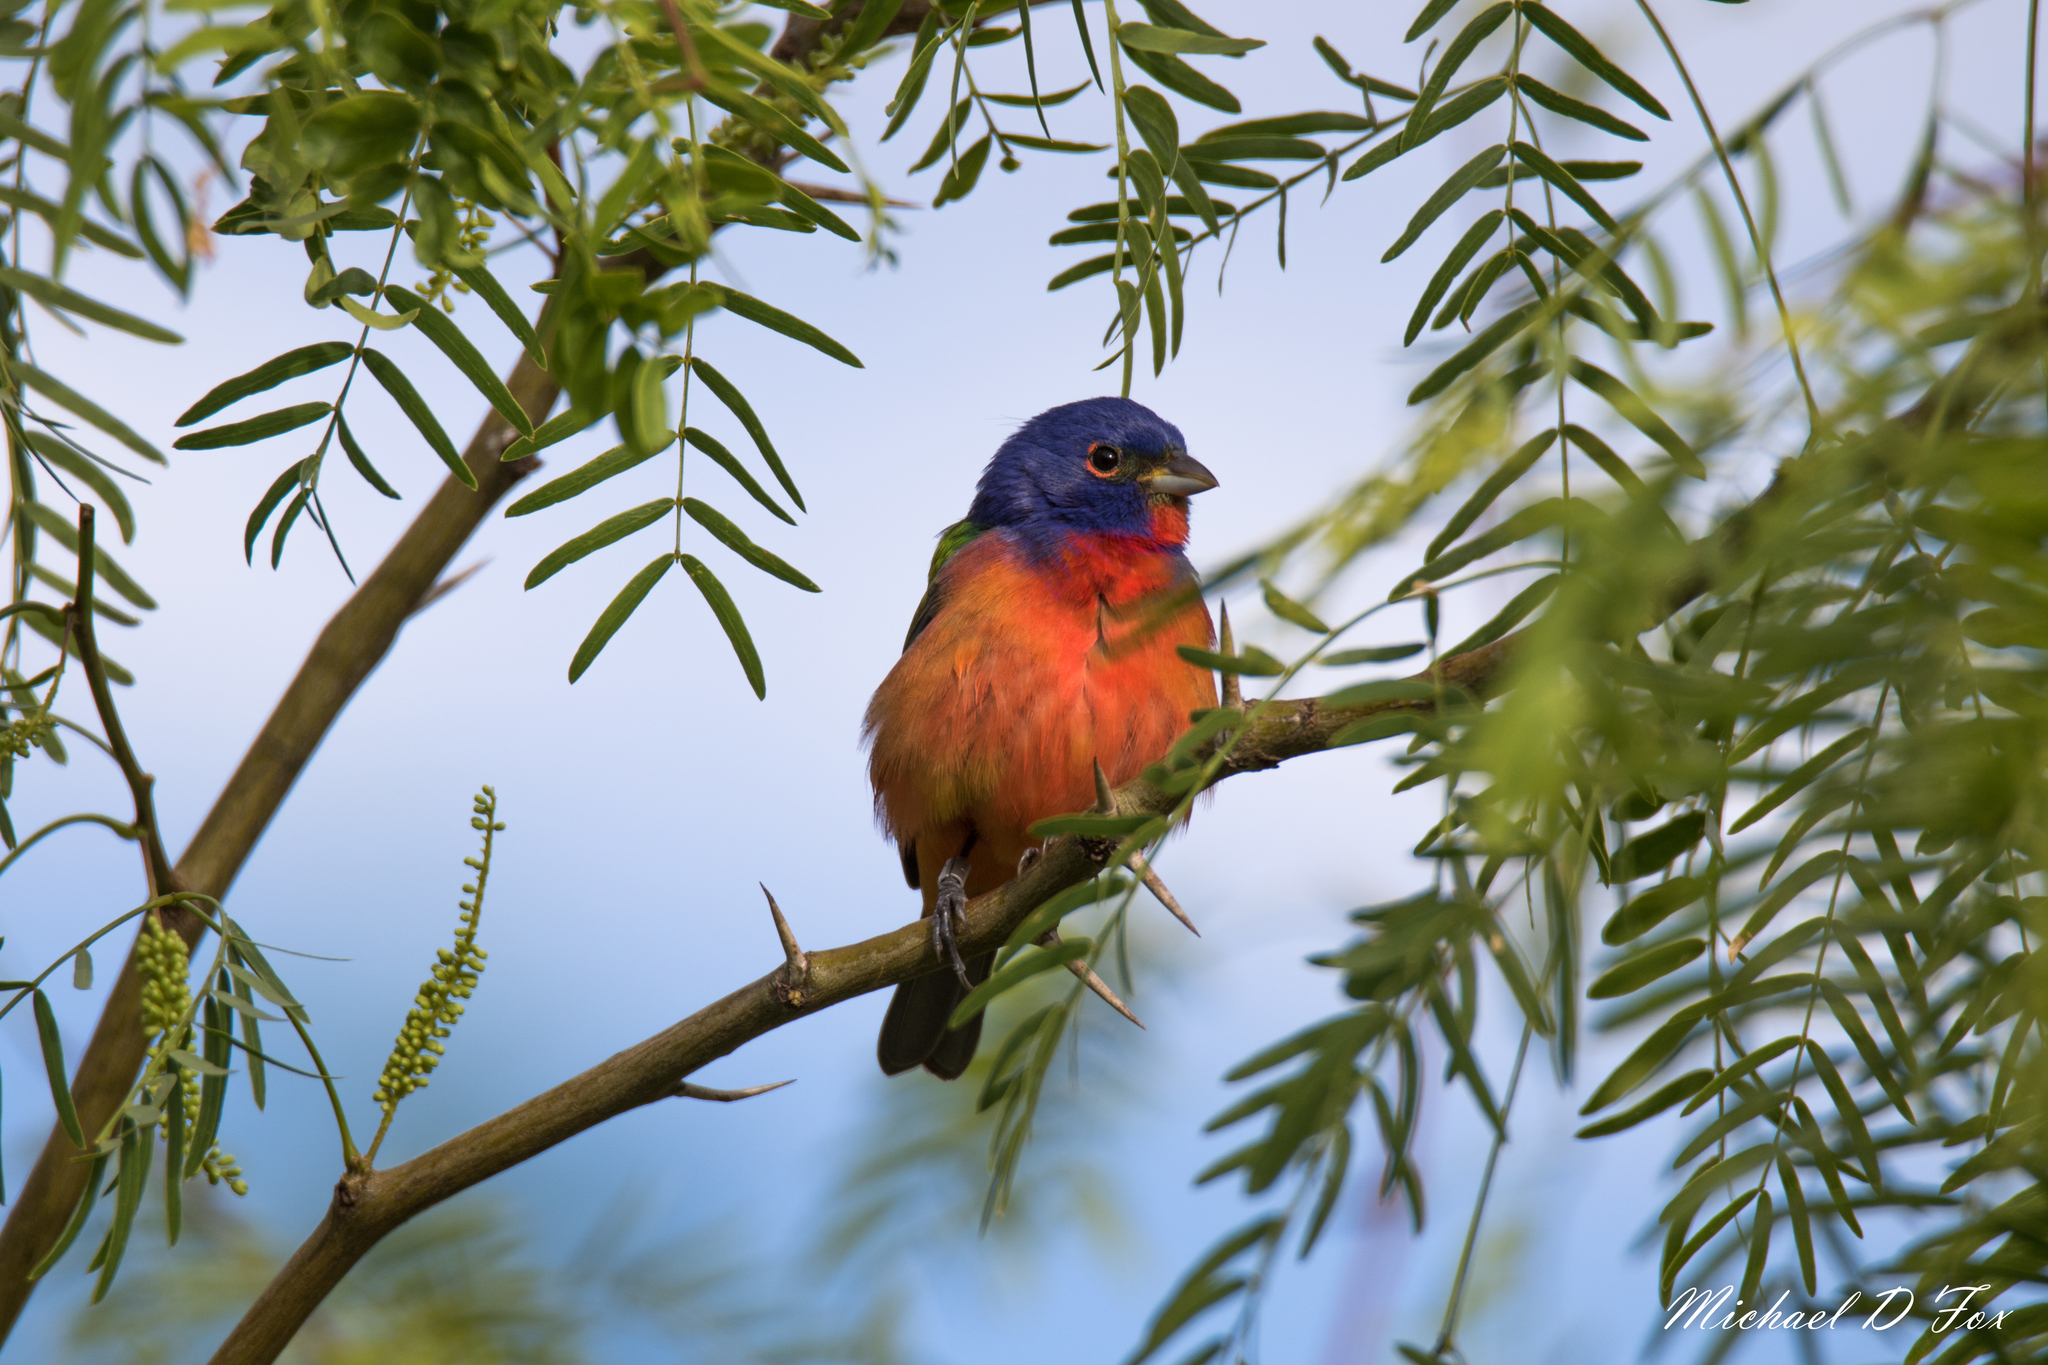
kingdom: Animalia
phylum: Chordata
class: Aves
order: Passeriformes
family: Cardinalidae
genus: Passerina
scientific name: Passerina ciris
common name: Painted bunting
